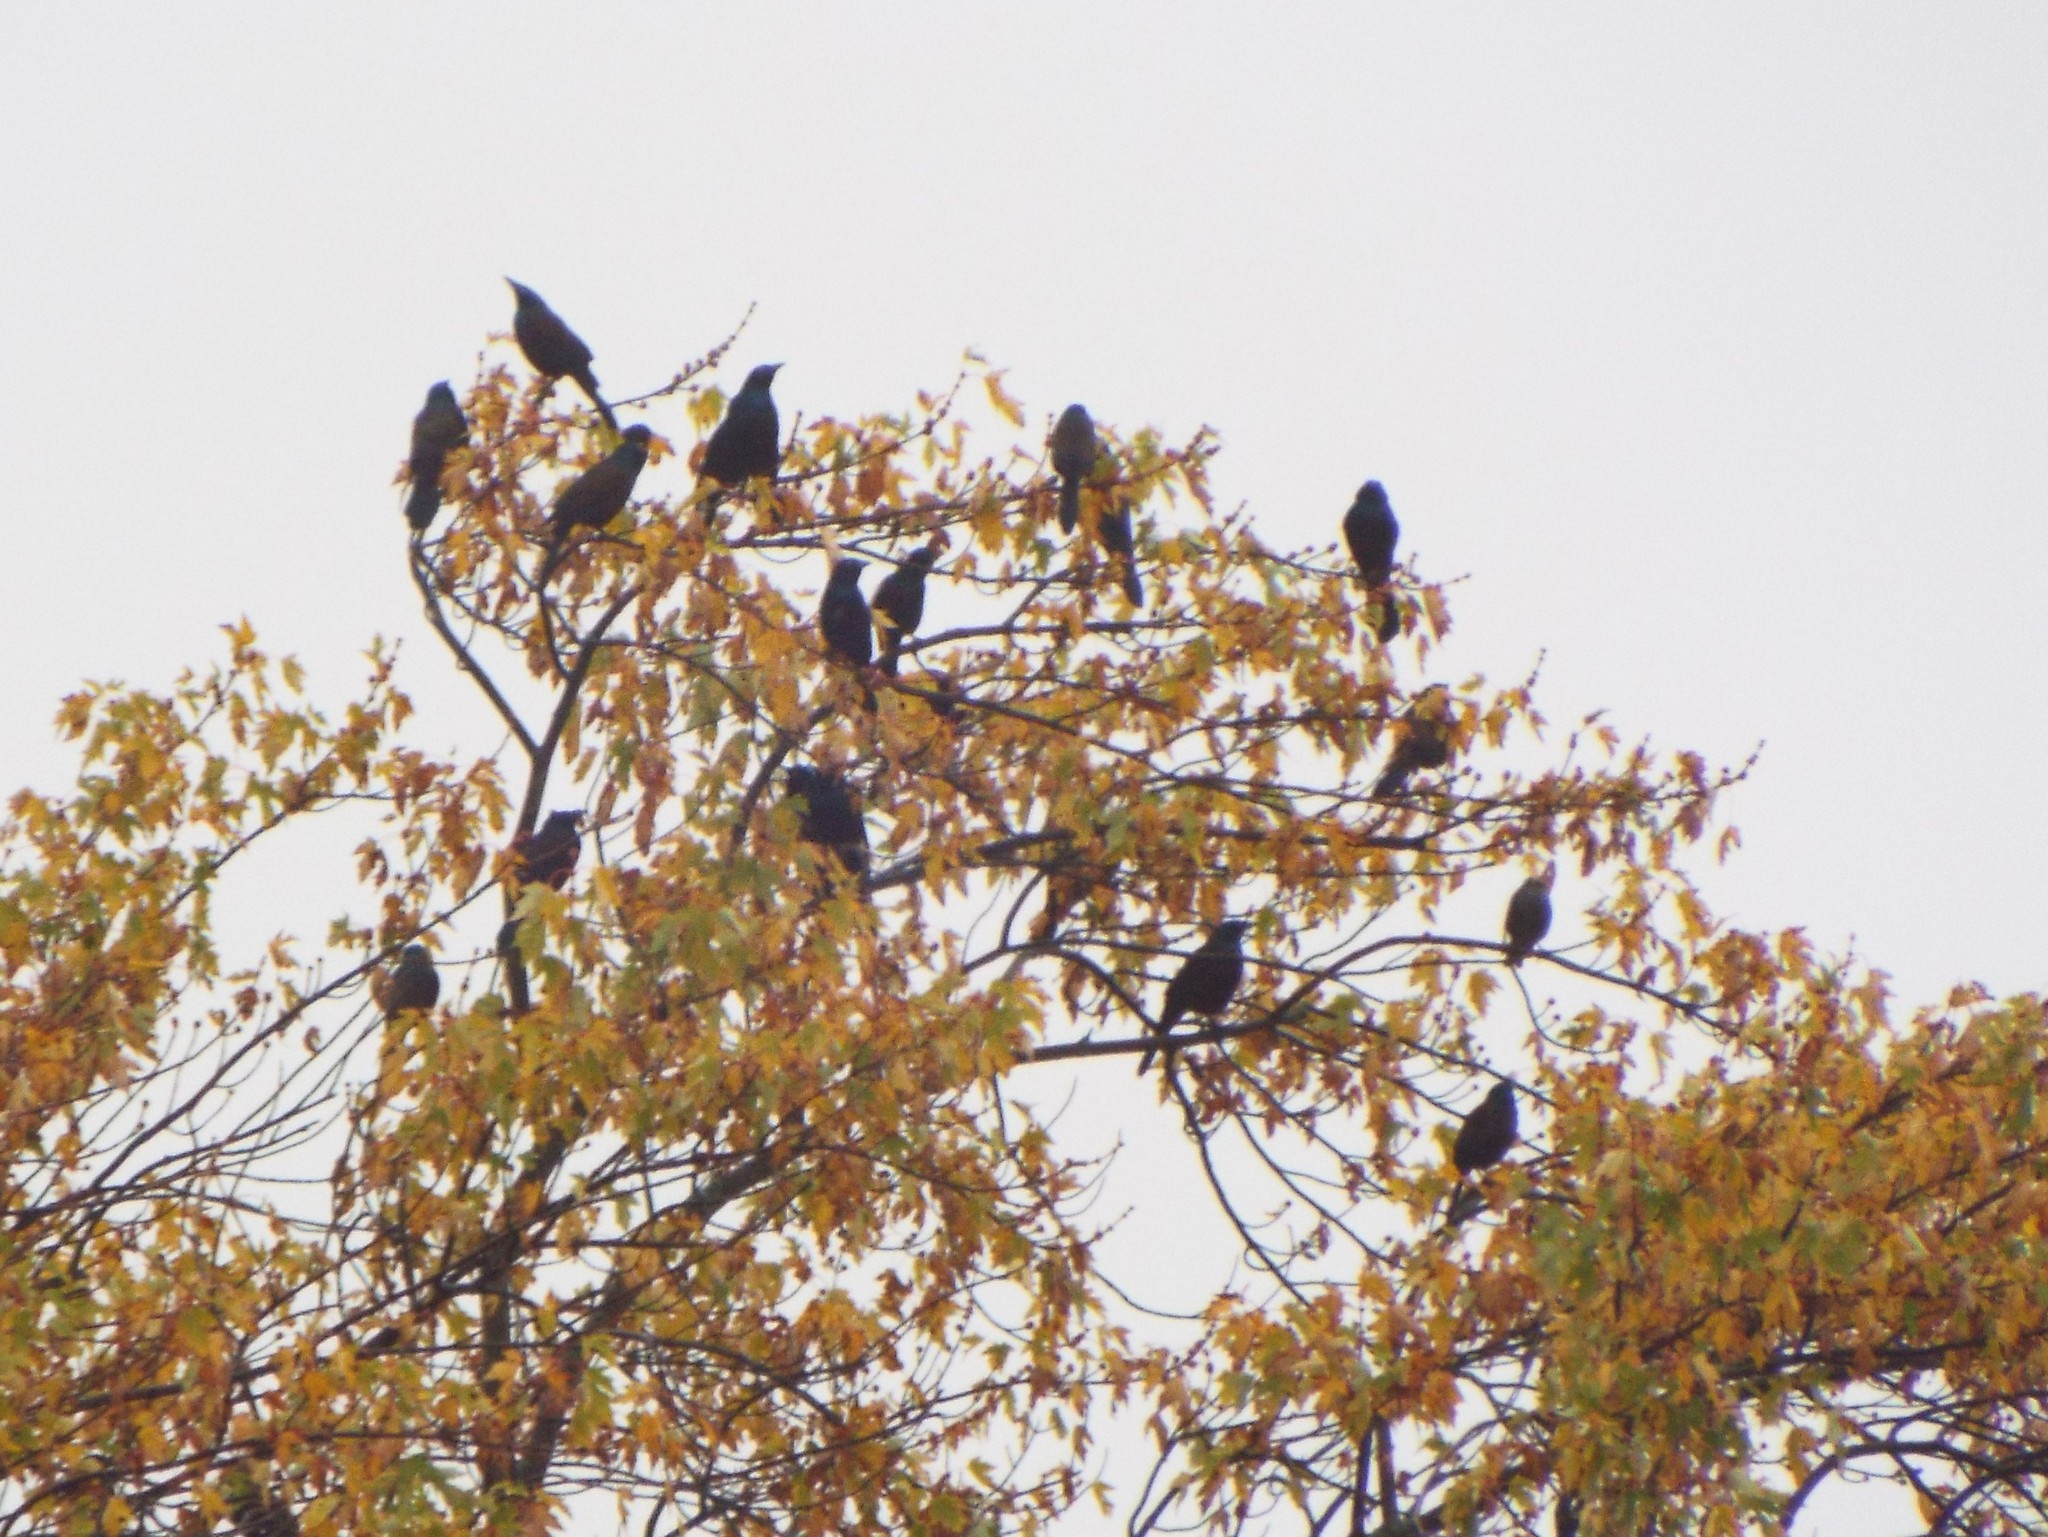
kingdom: Animalia
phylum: Chordata
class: Aves
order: Passeriformes
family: Icteridae
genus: Quiscalus
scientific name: Quiscalus quiscula
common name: Common grackle
